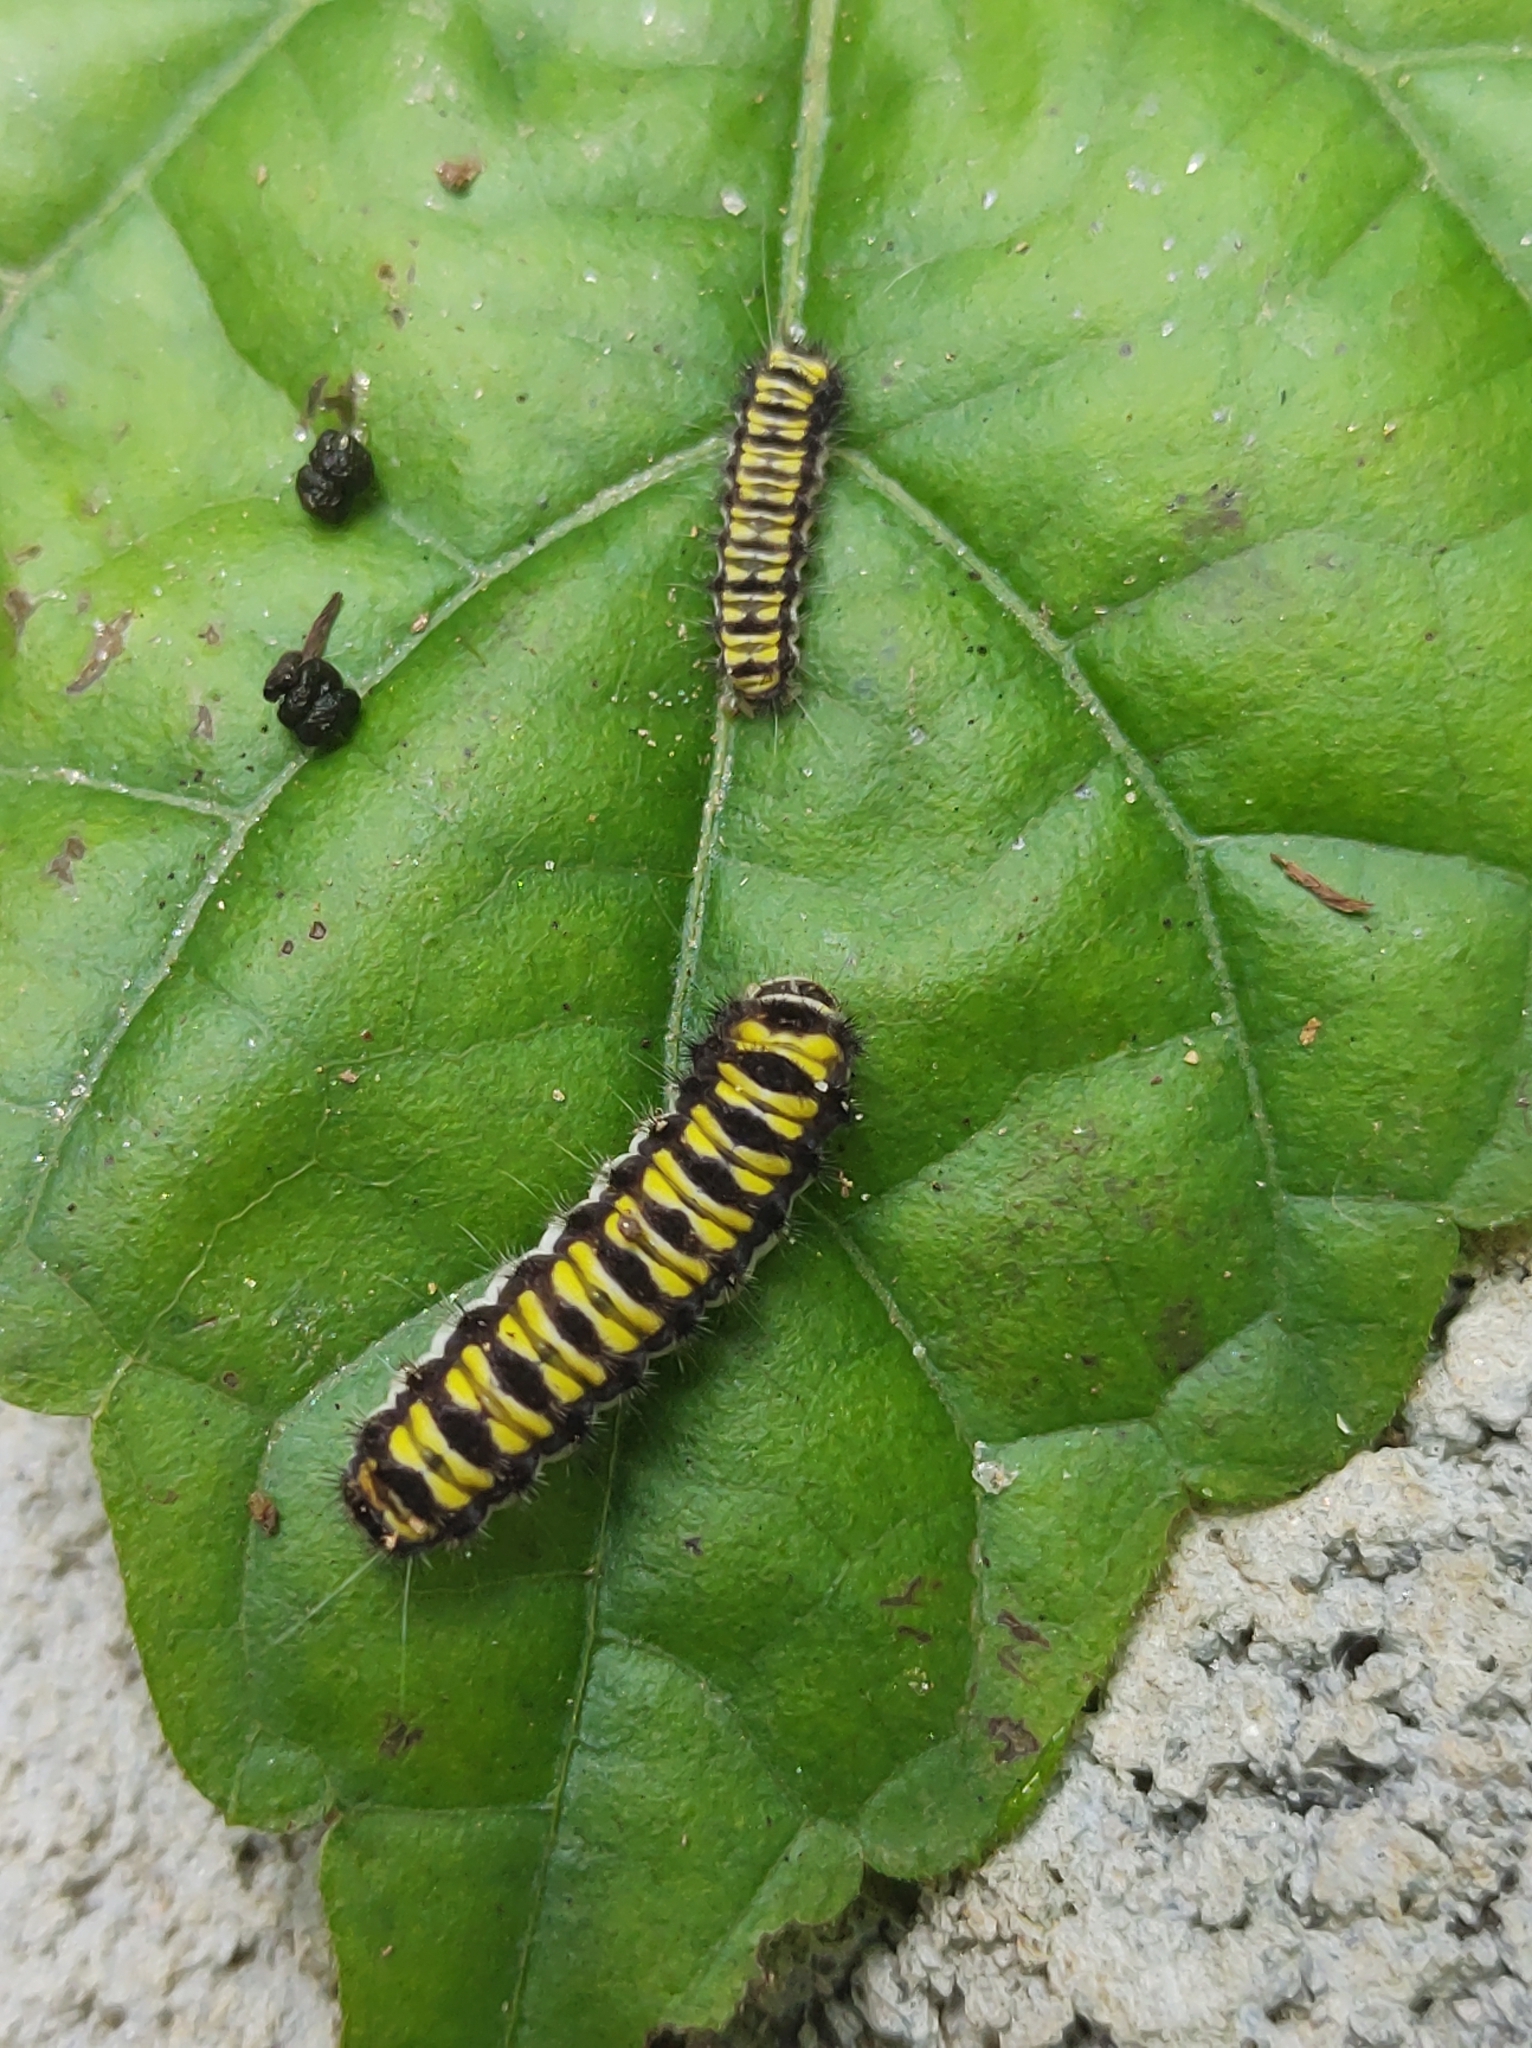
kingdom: Animalia
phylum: Arthropoda
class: Insecta
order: Lepidoptera
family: Zygaenidae
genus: Harrisina
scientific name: Harrisina americana
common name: Grapeleaf skeletonizer moth
